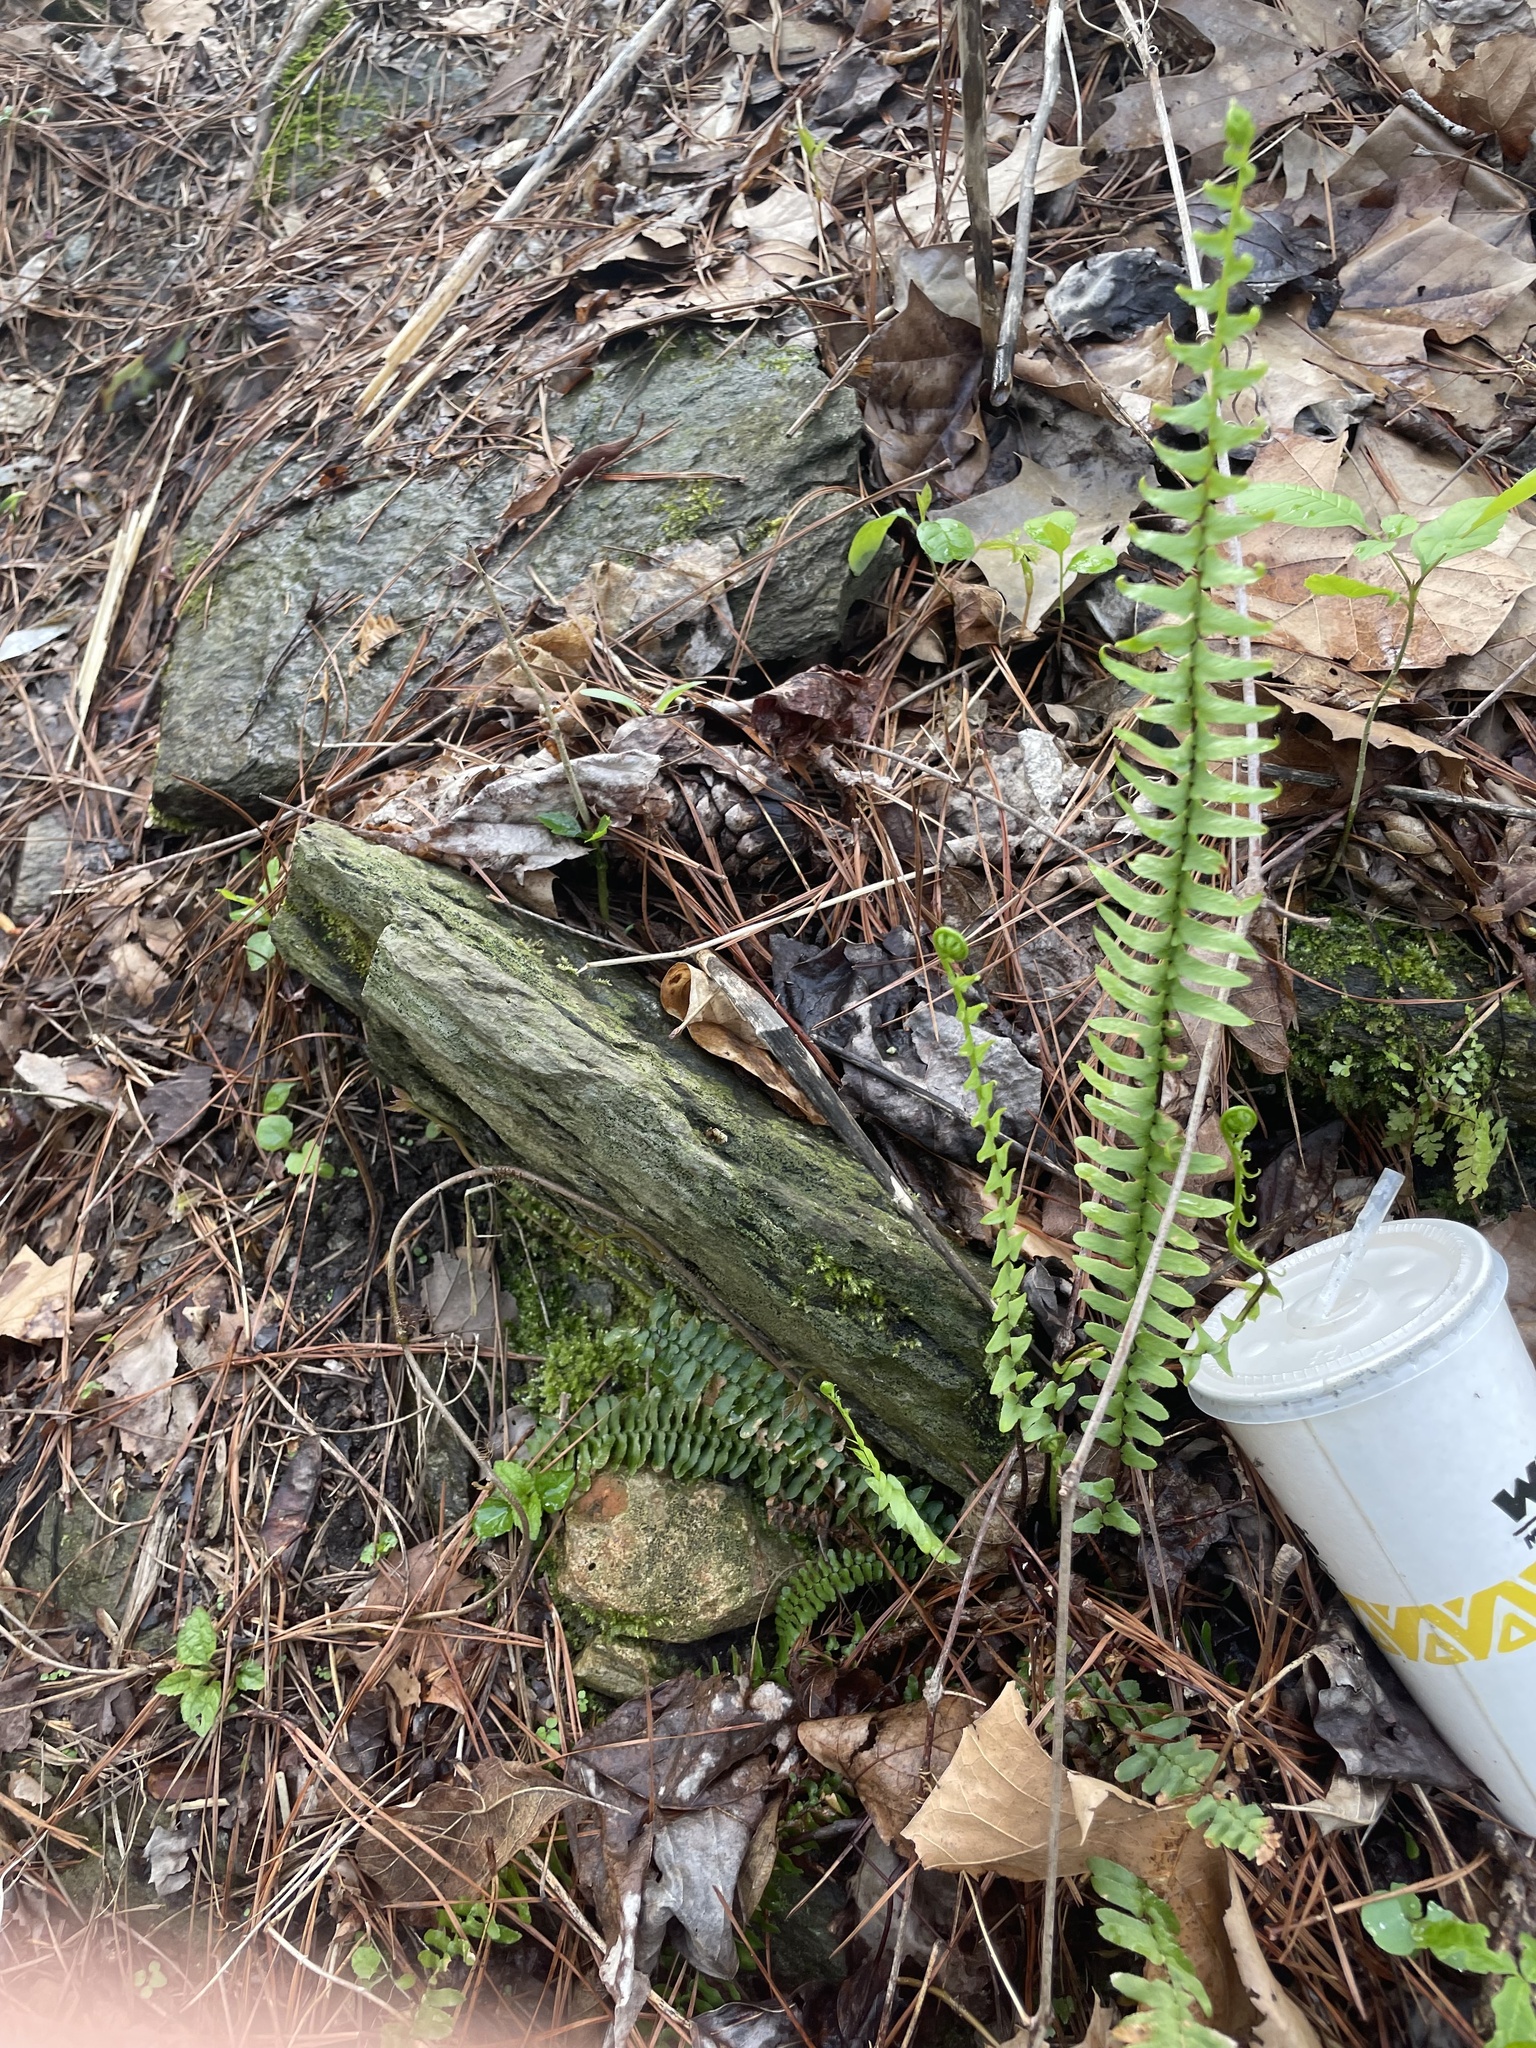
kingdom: Plantae
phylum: Tracheophyta
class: Polypodiopsida
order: Polypodiales
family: Aspleniaceae
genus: Asplenium
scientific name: Asplenium platyneuron
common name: Ebony spleenwort
